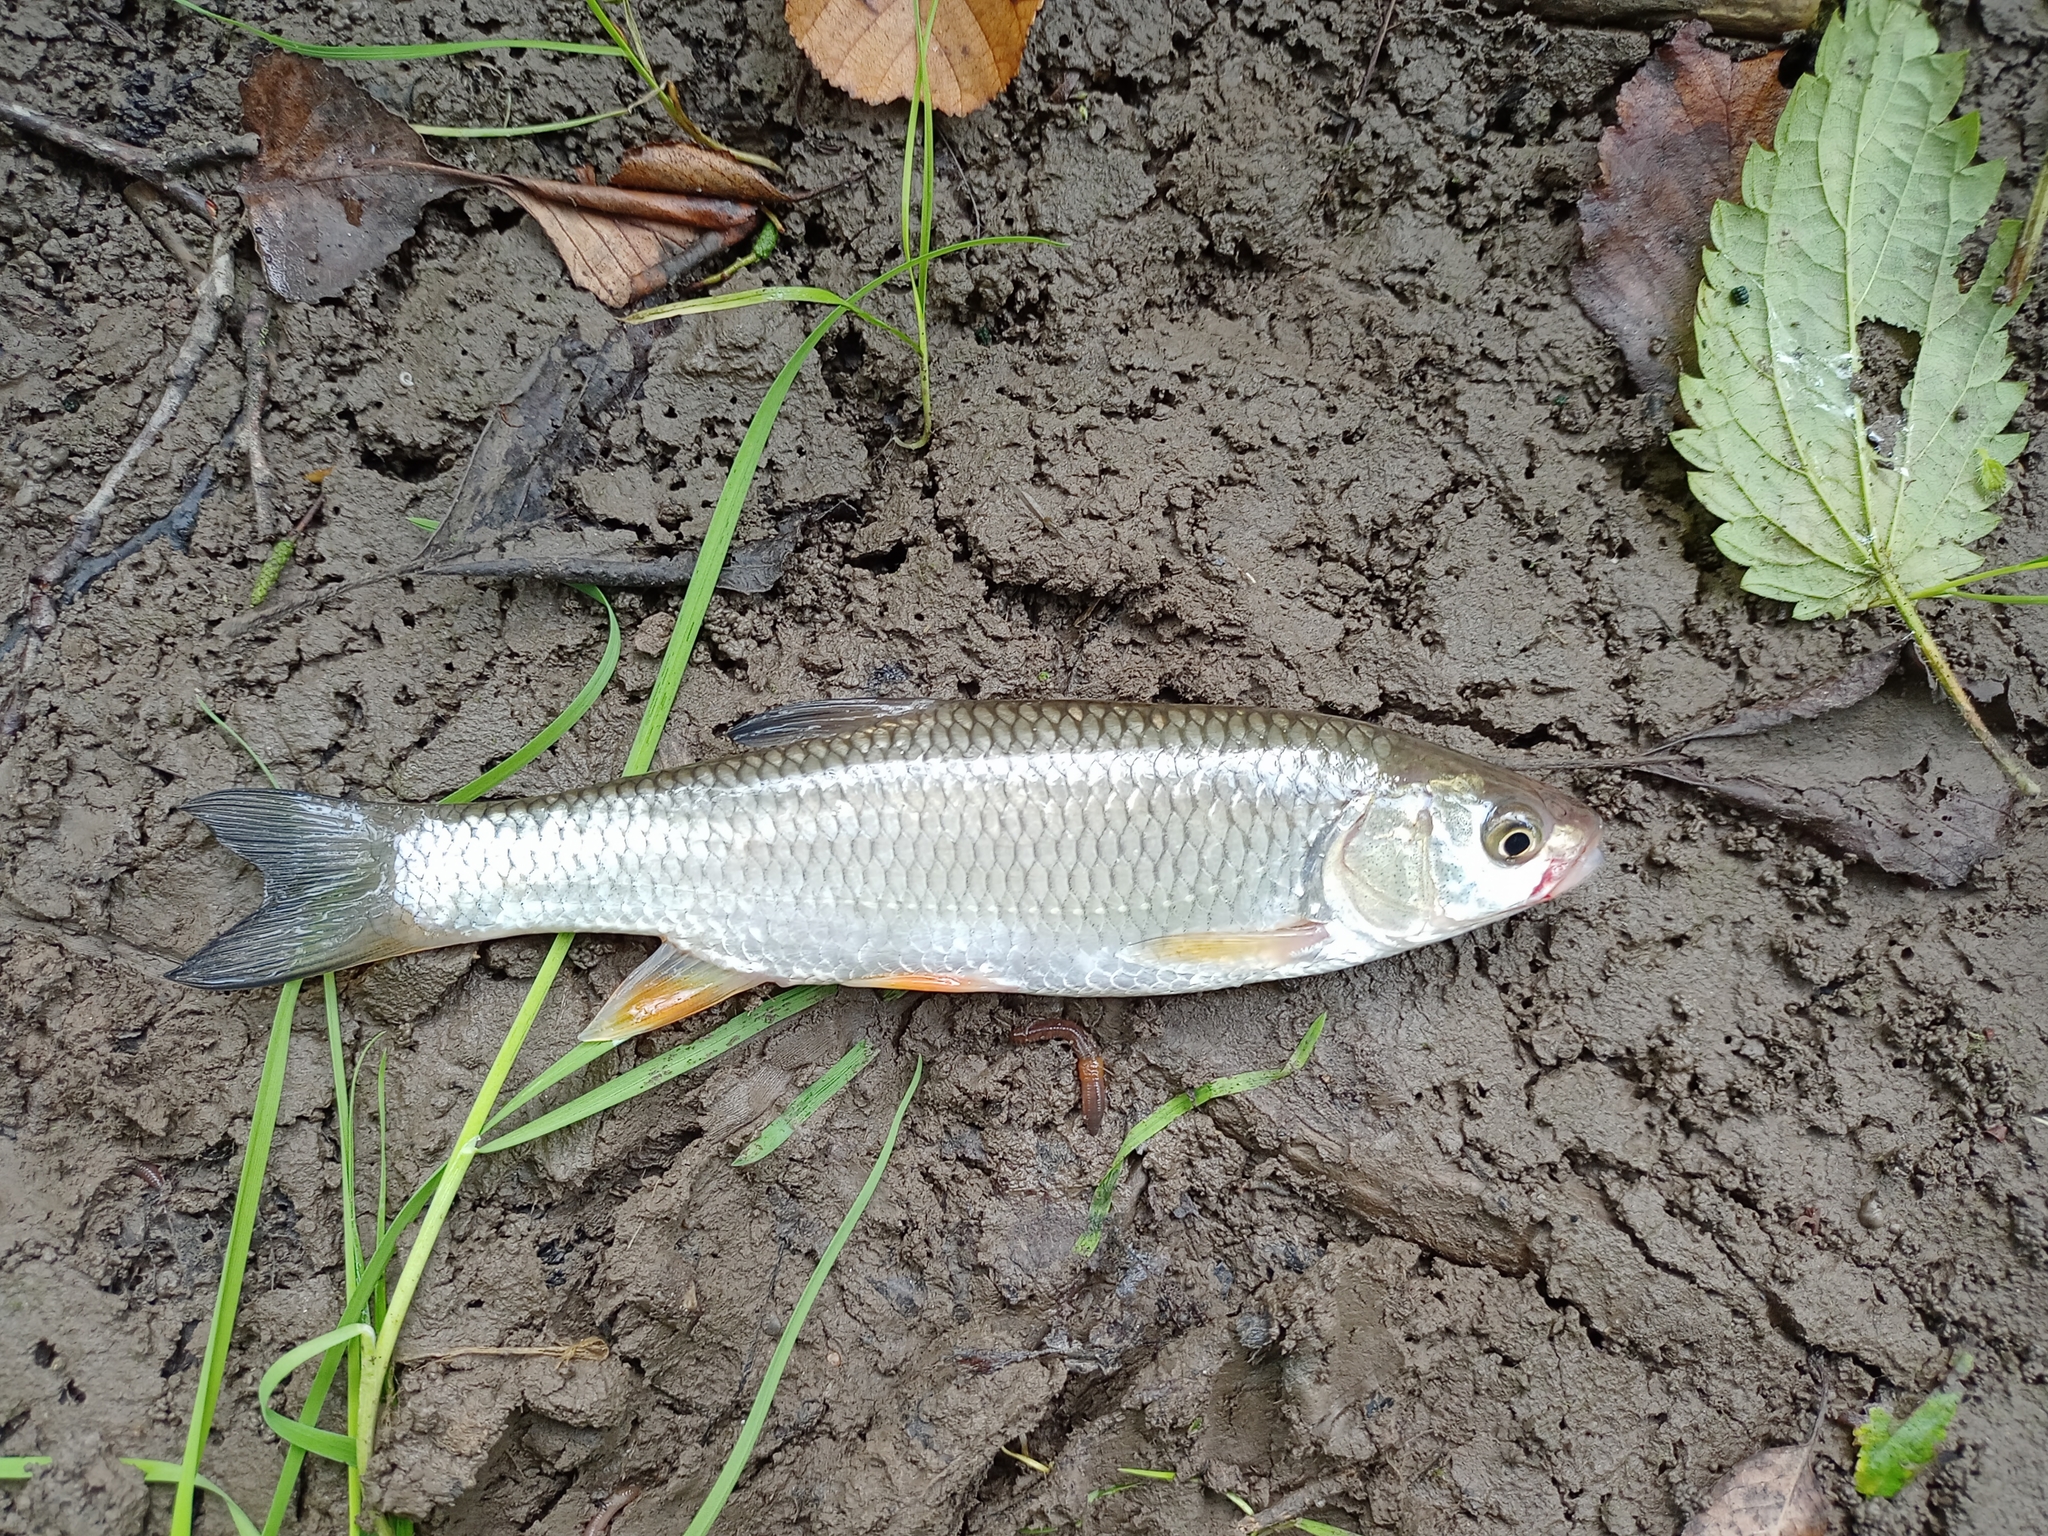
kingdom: Animalia
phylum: Chordata
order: Cypriniformes
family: Cyprinidae
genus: Squalius
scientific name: Squalius cephalus
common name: Chub
